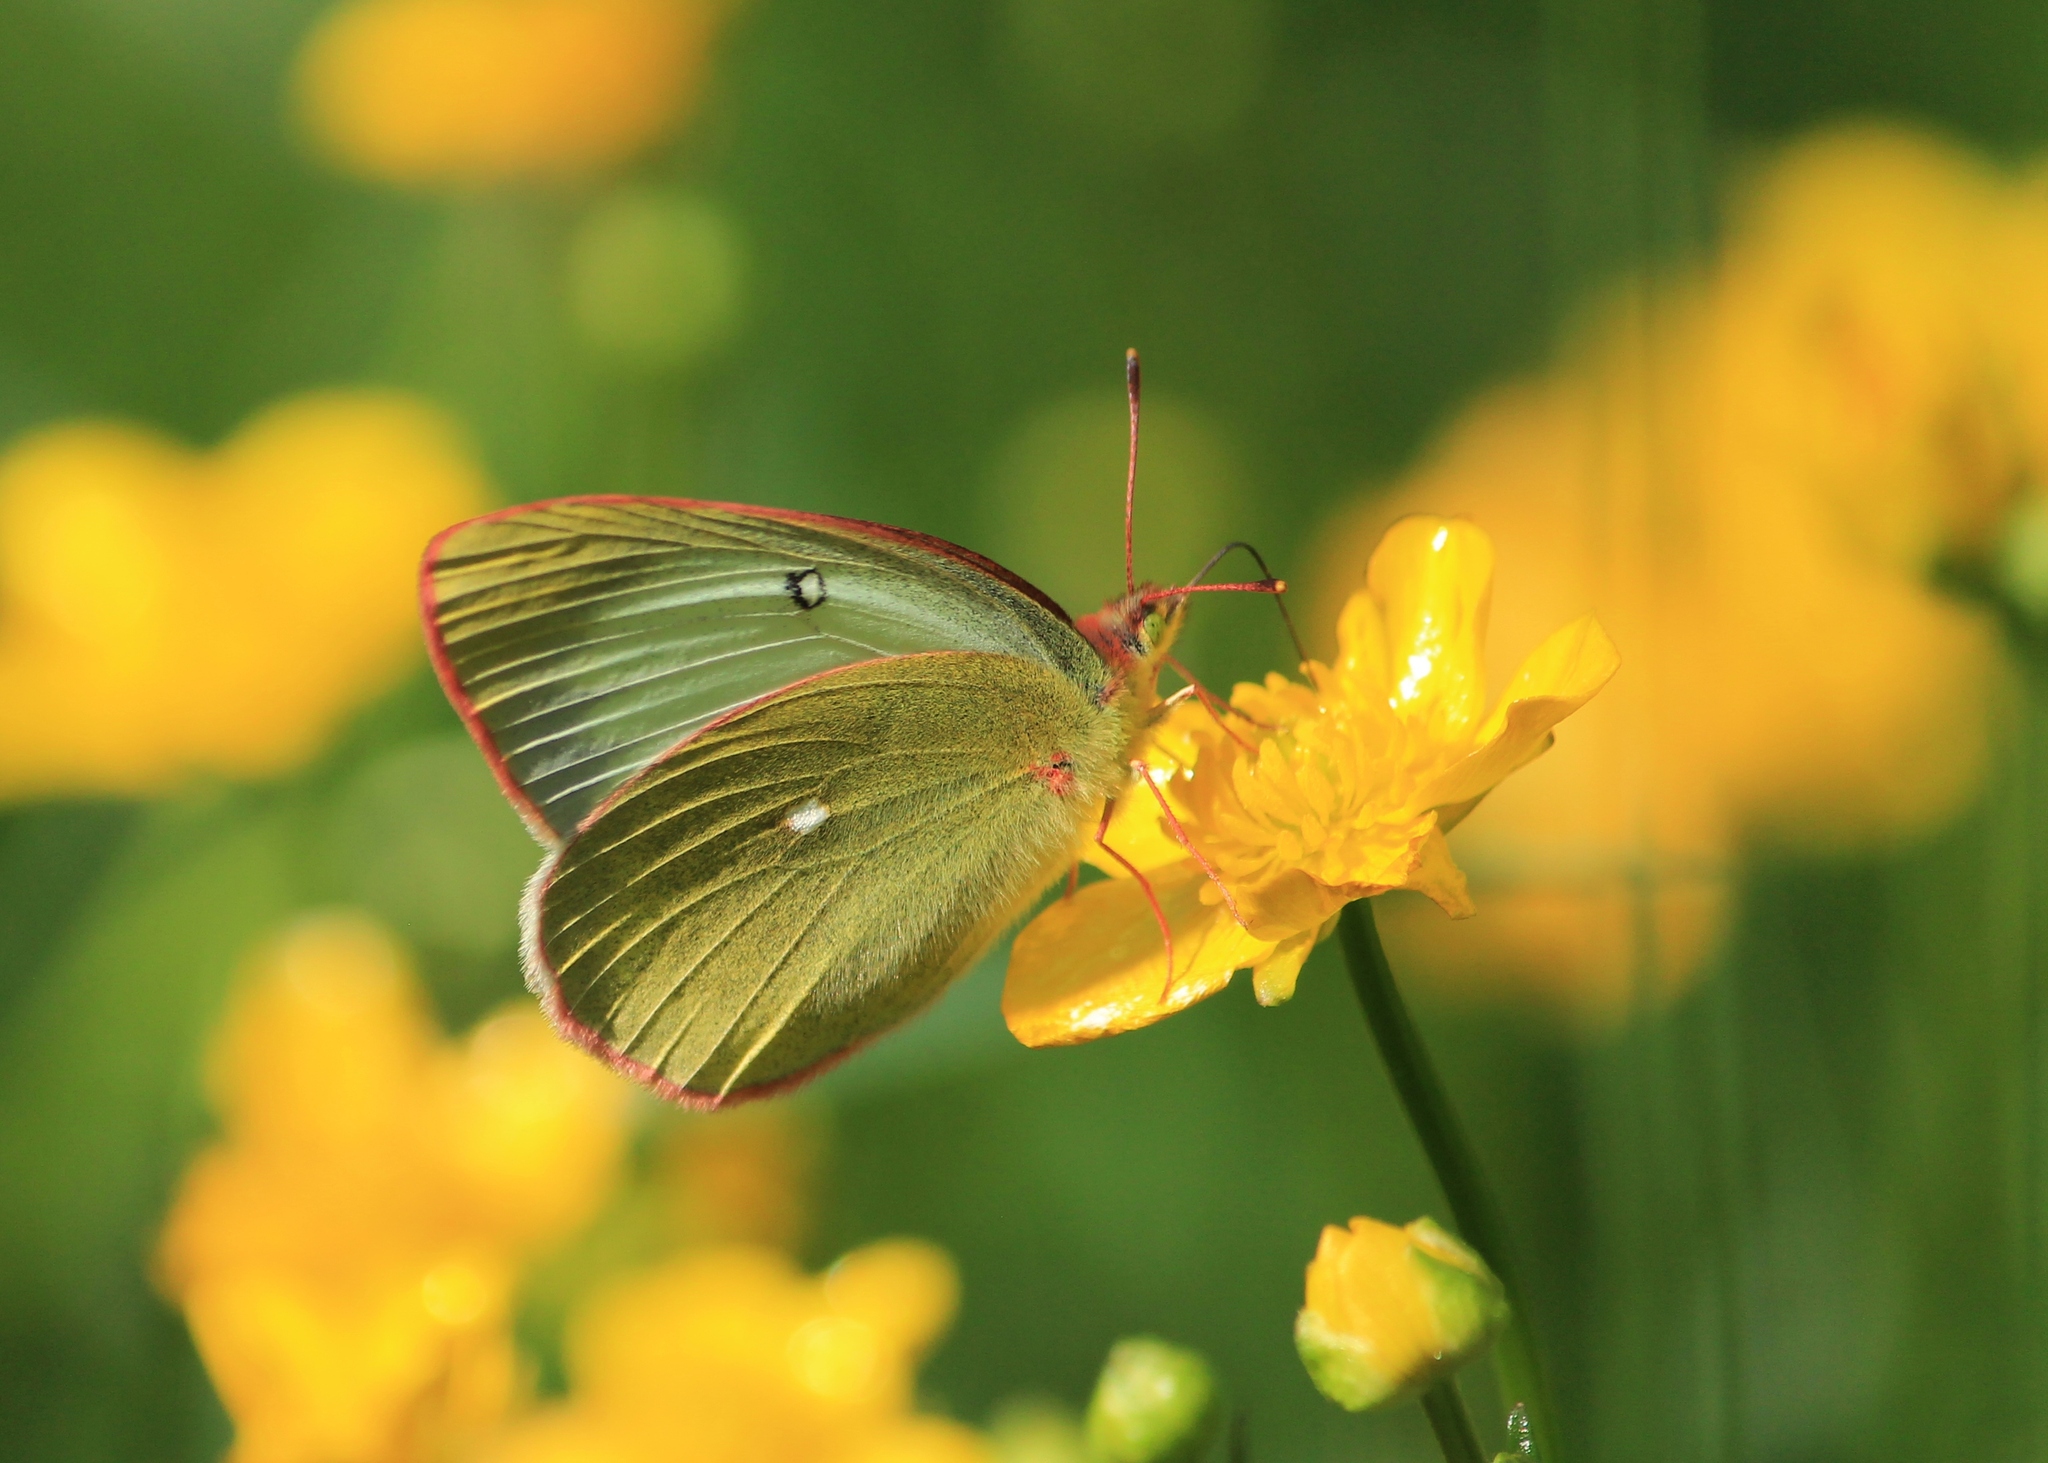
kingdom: Animalia
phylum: Arthropoda
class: Insecta
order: Lepidoptera
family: Pieridae
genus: Colias
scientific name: Colias palaeno
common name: Moorland clouded yellow
